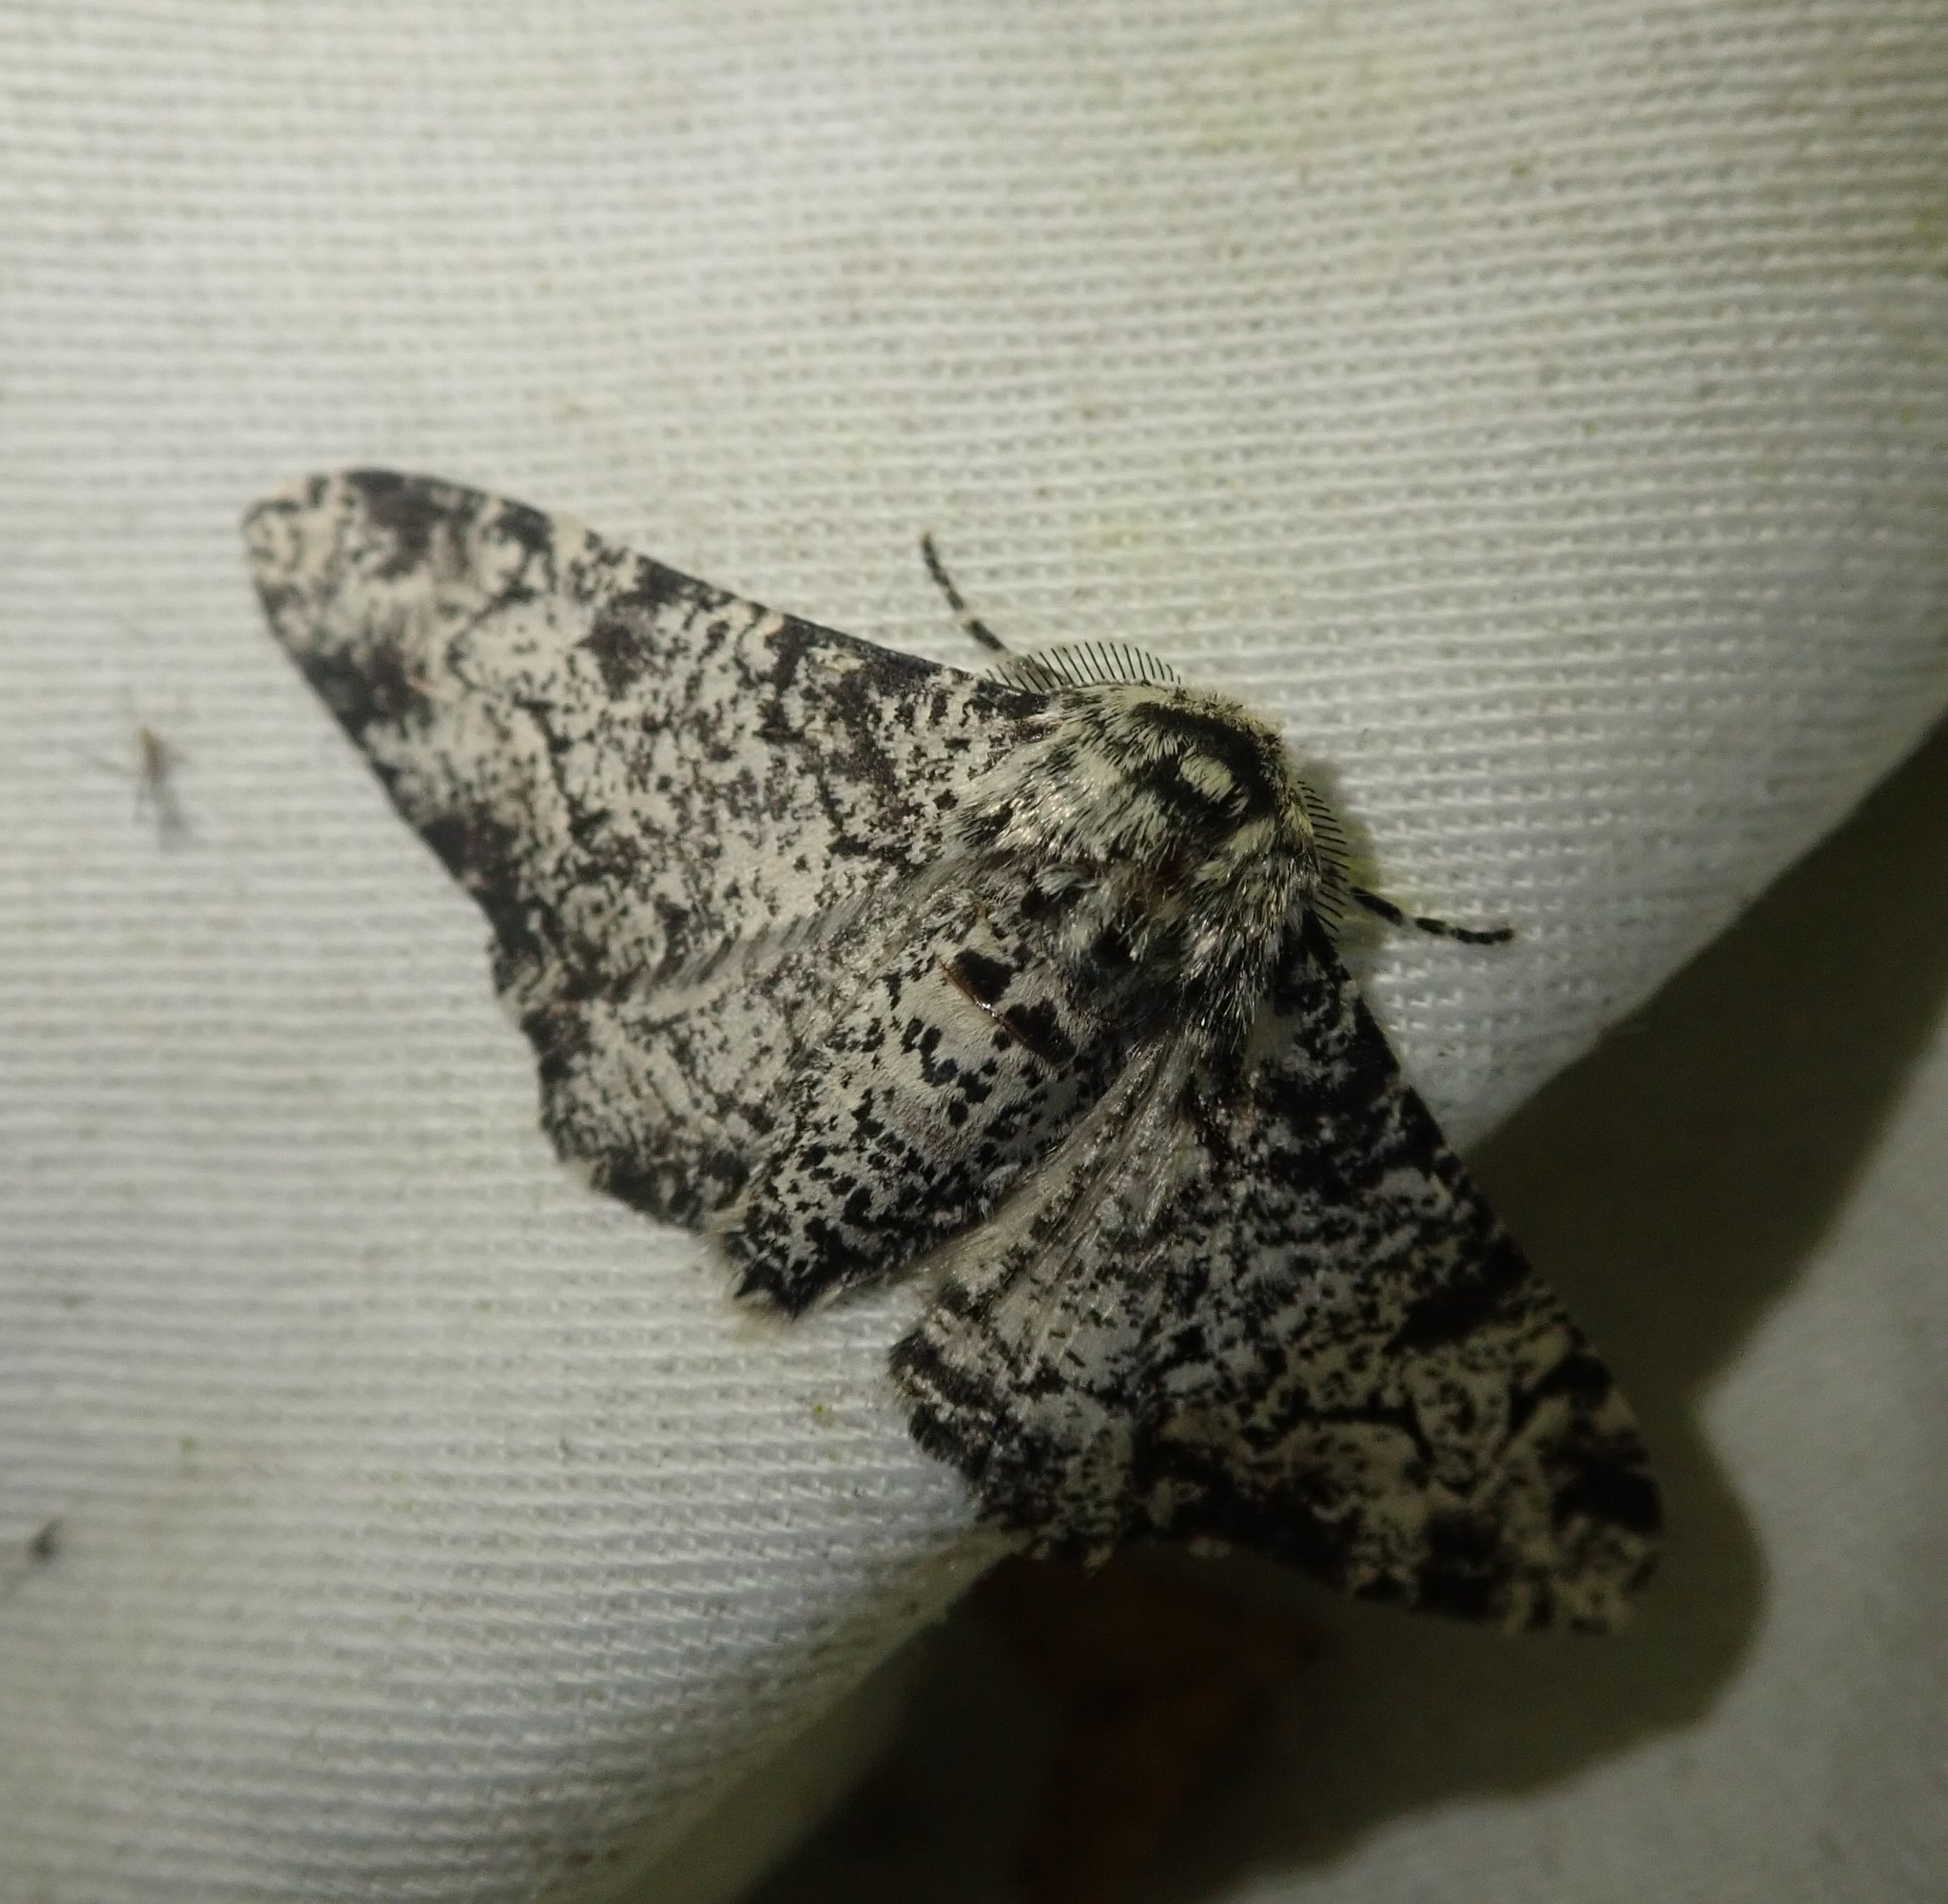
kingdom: Animalia
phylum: Arthropoda
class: Insecta
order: Lepidoptera
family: Geometridae
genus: Biston
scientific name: Biston betularia
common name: Peppered moth
